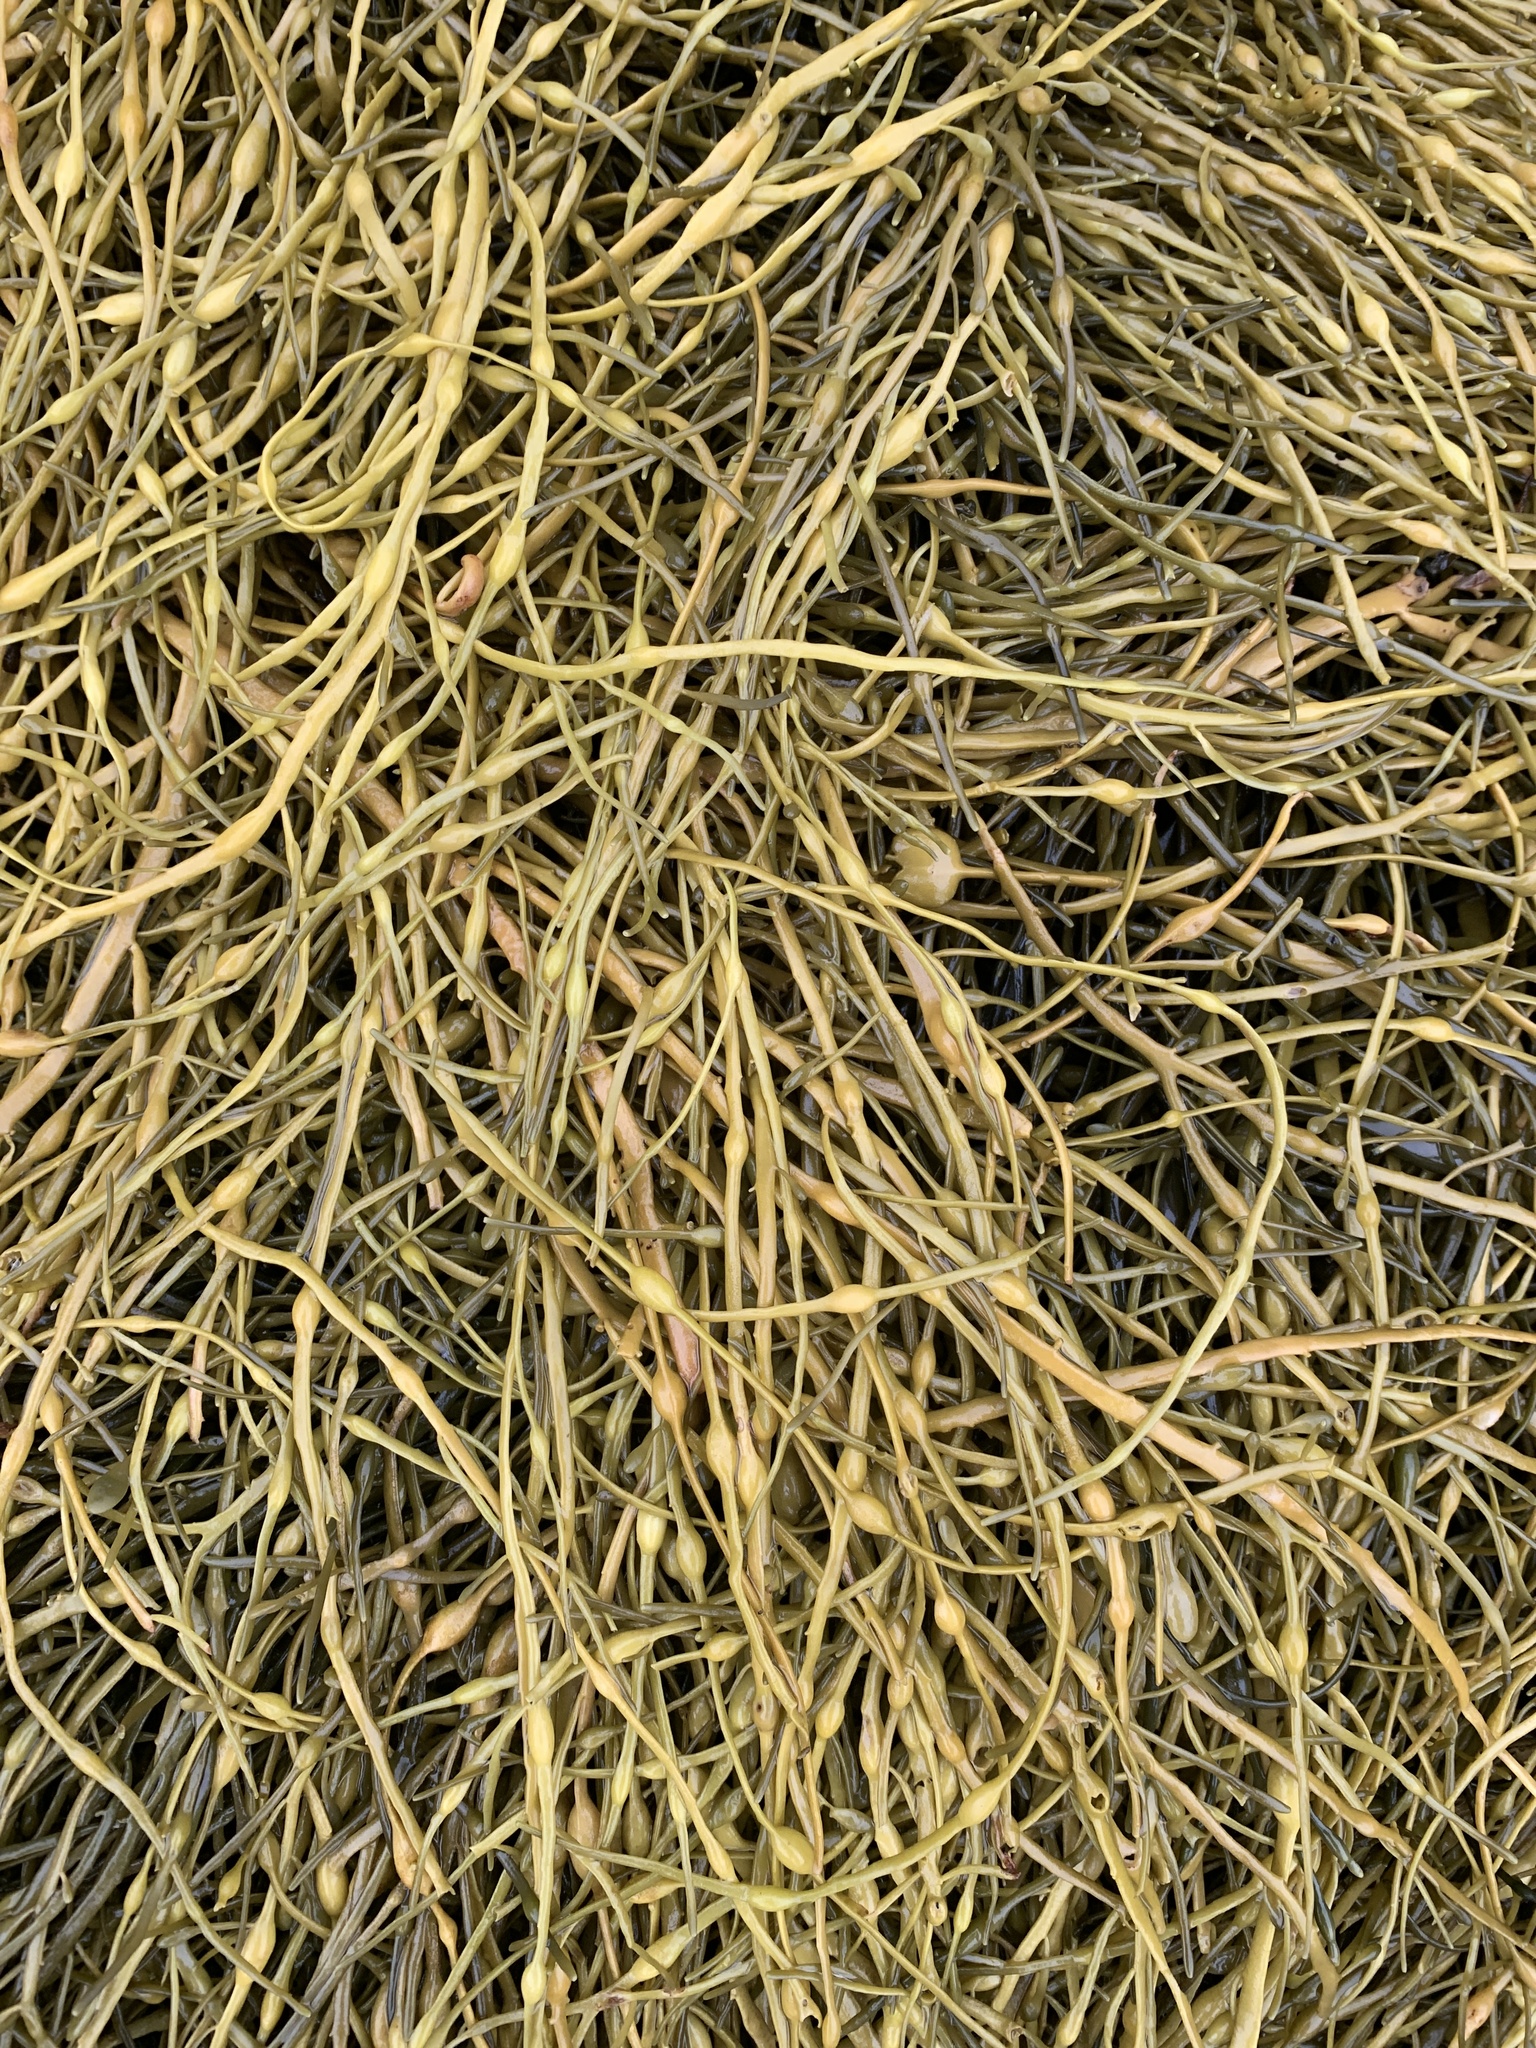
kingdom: Chromista
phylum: Ochrophyta
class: Phaeophyceae
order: Fucales
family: Fucaceae
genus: Ascophyllum
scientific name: Ascophyllum nodosum
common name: Knotted wrack
